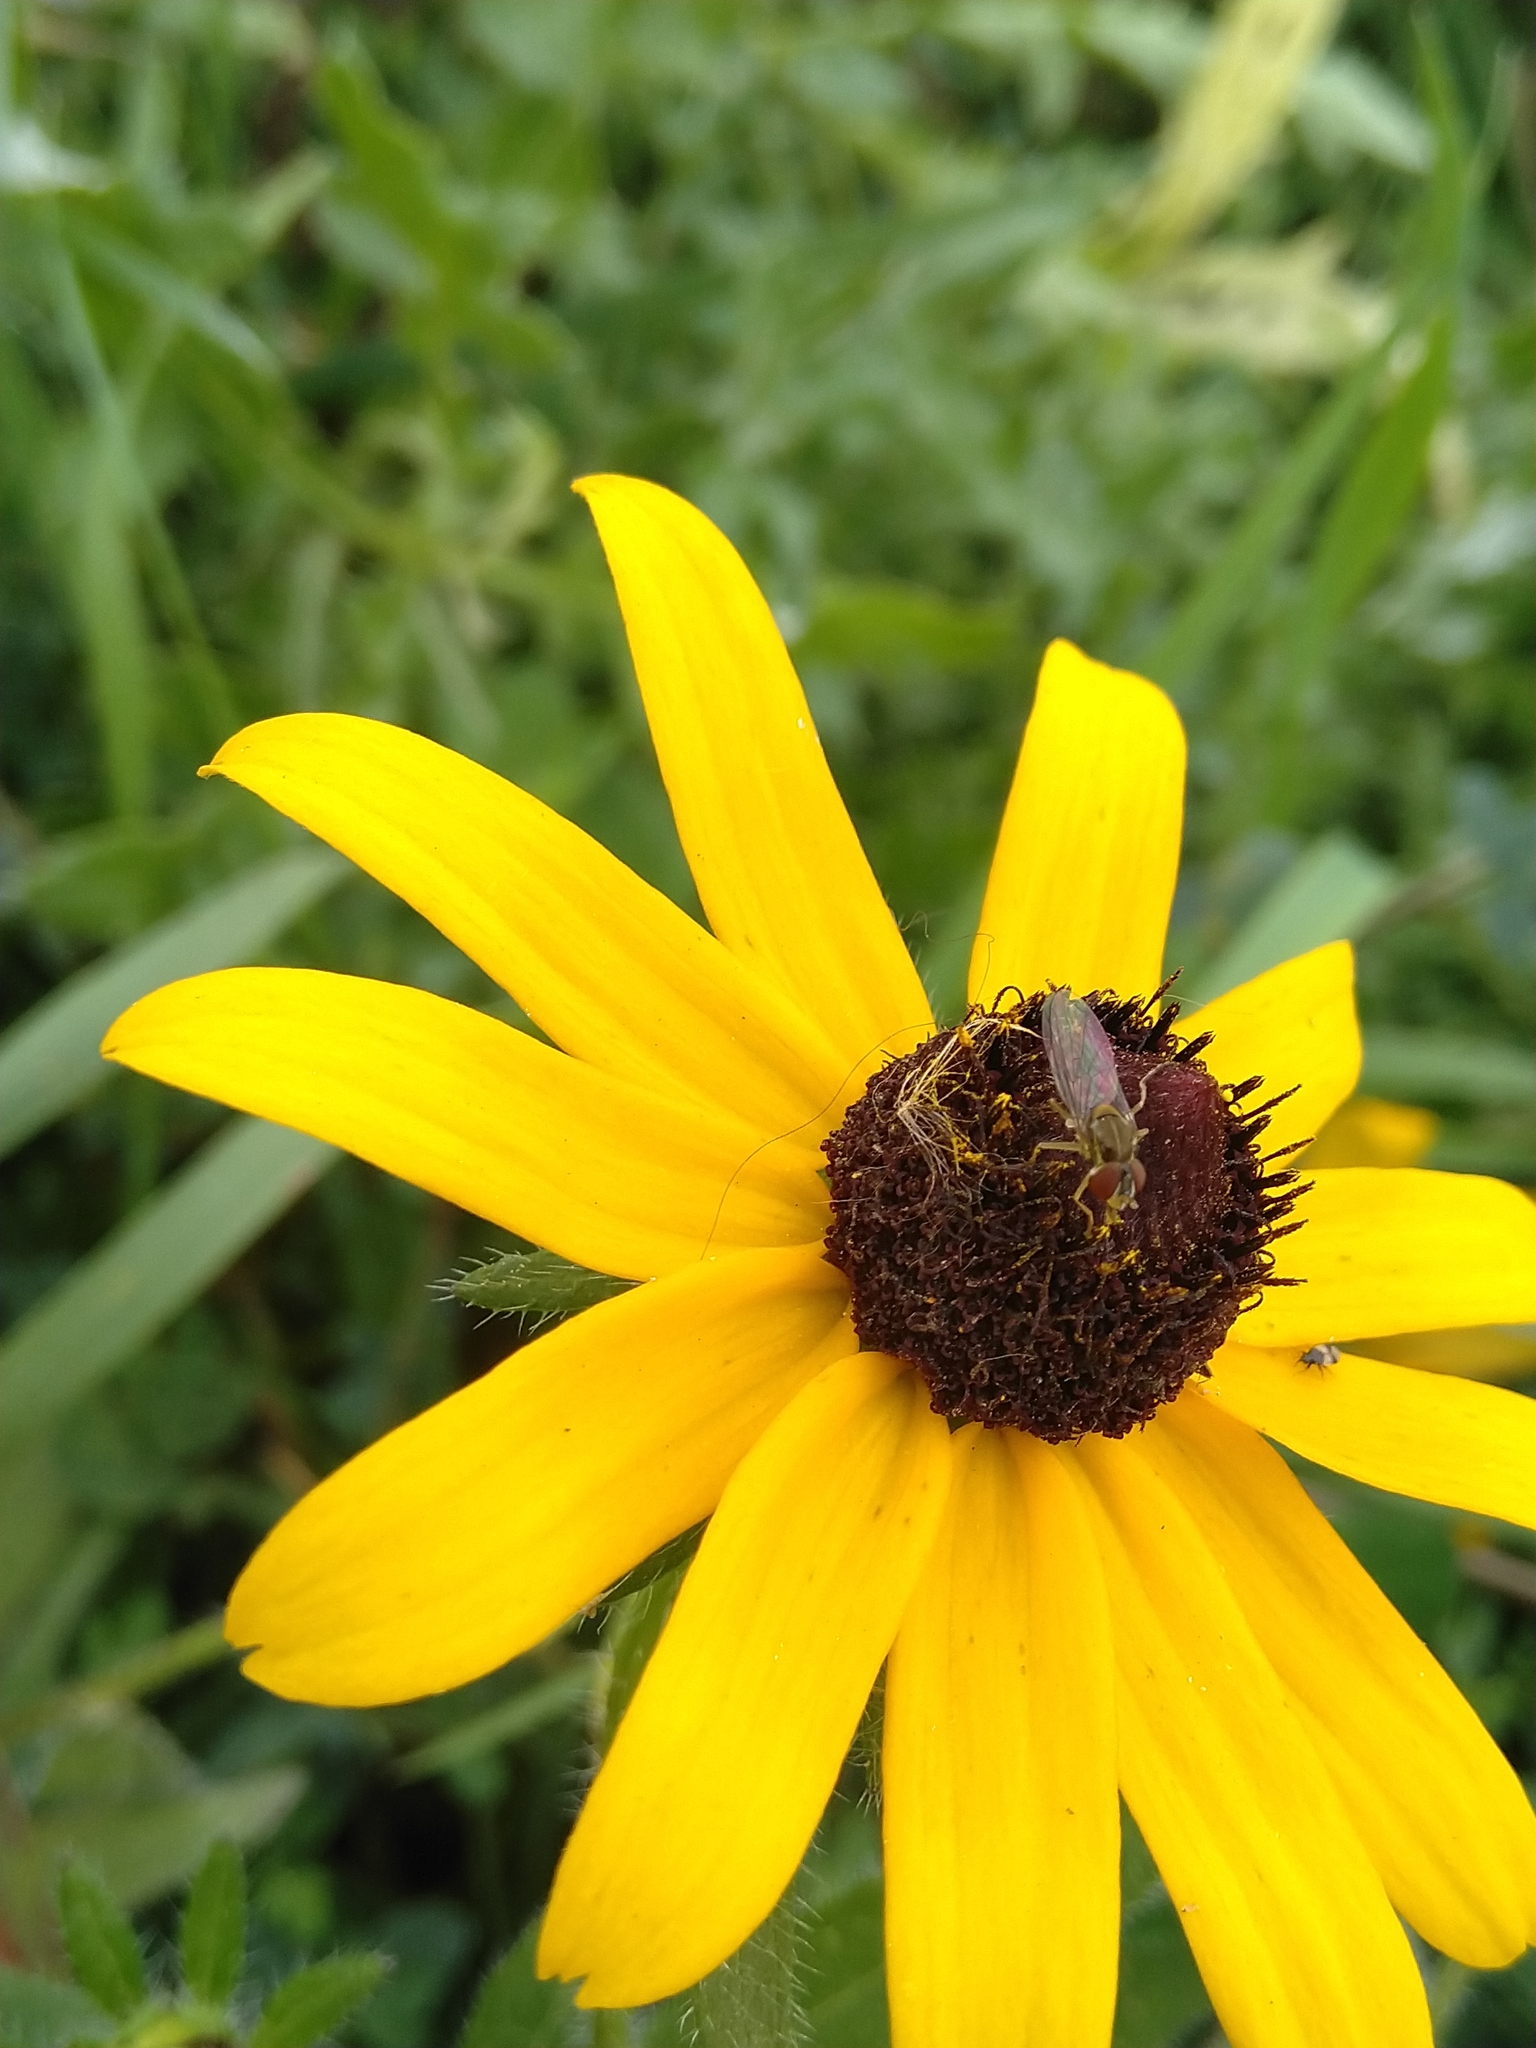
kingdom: Plantae
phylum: Tracheophyta
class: Magnoliopsida
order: Asterales
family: Asteraceae
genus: Rudbeckia
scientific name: Rudbeckia hirta
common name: Black-eyed-susan
